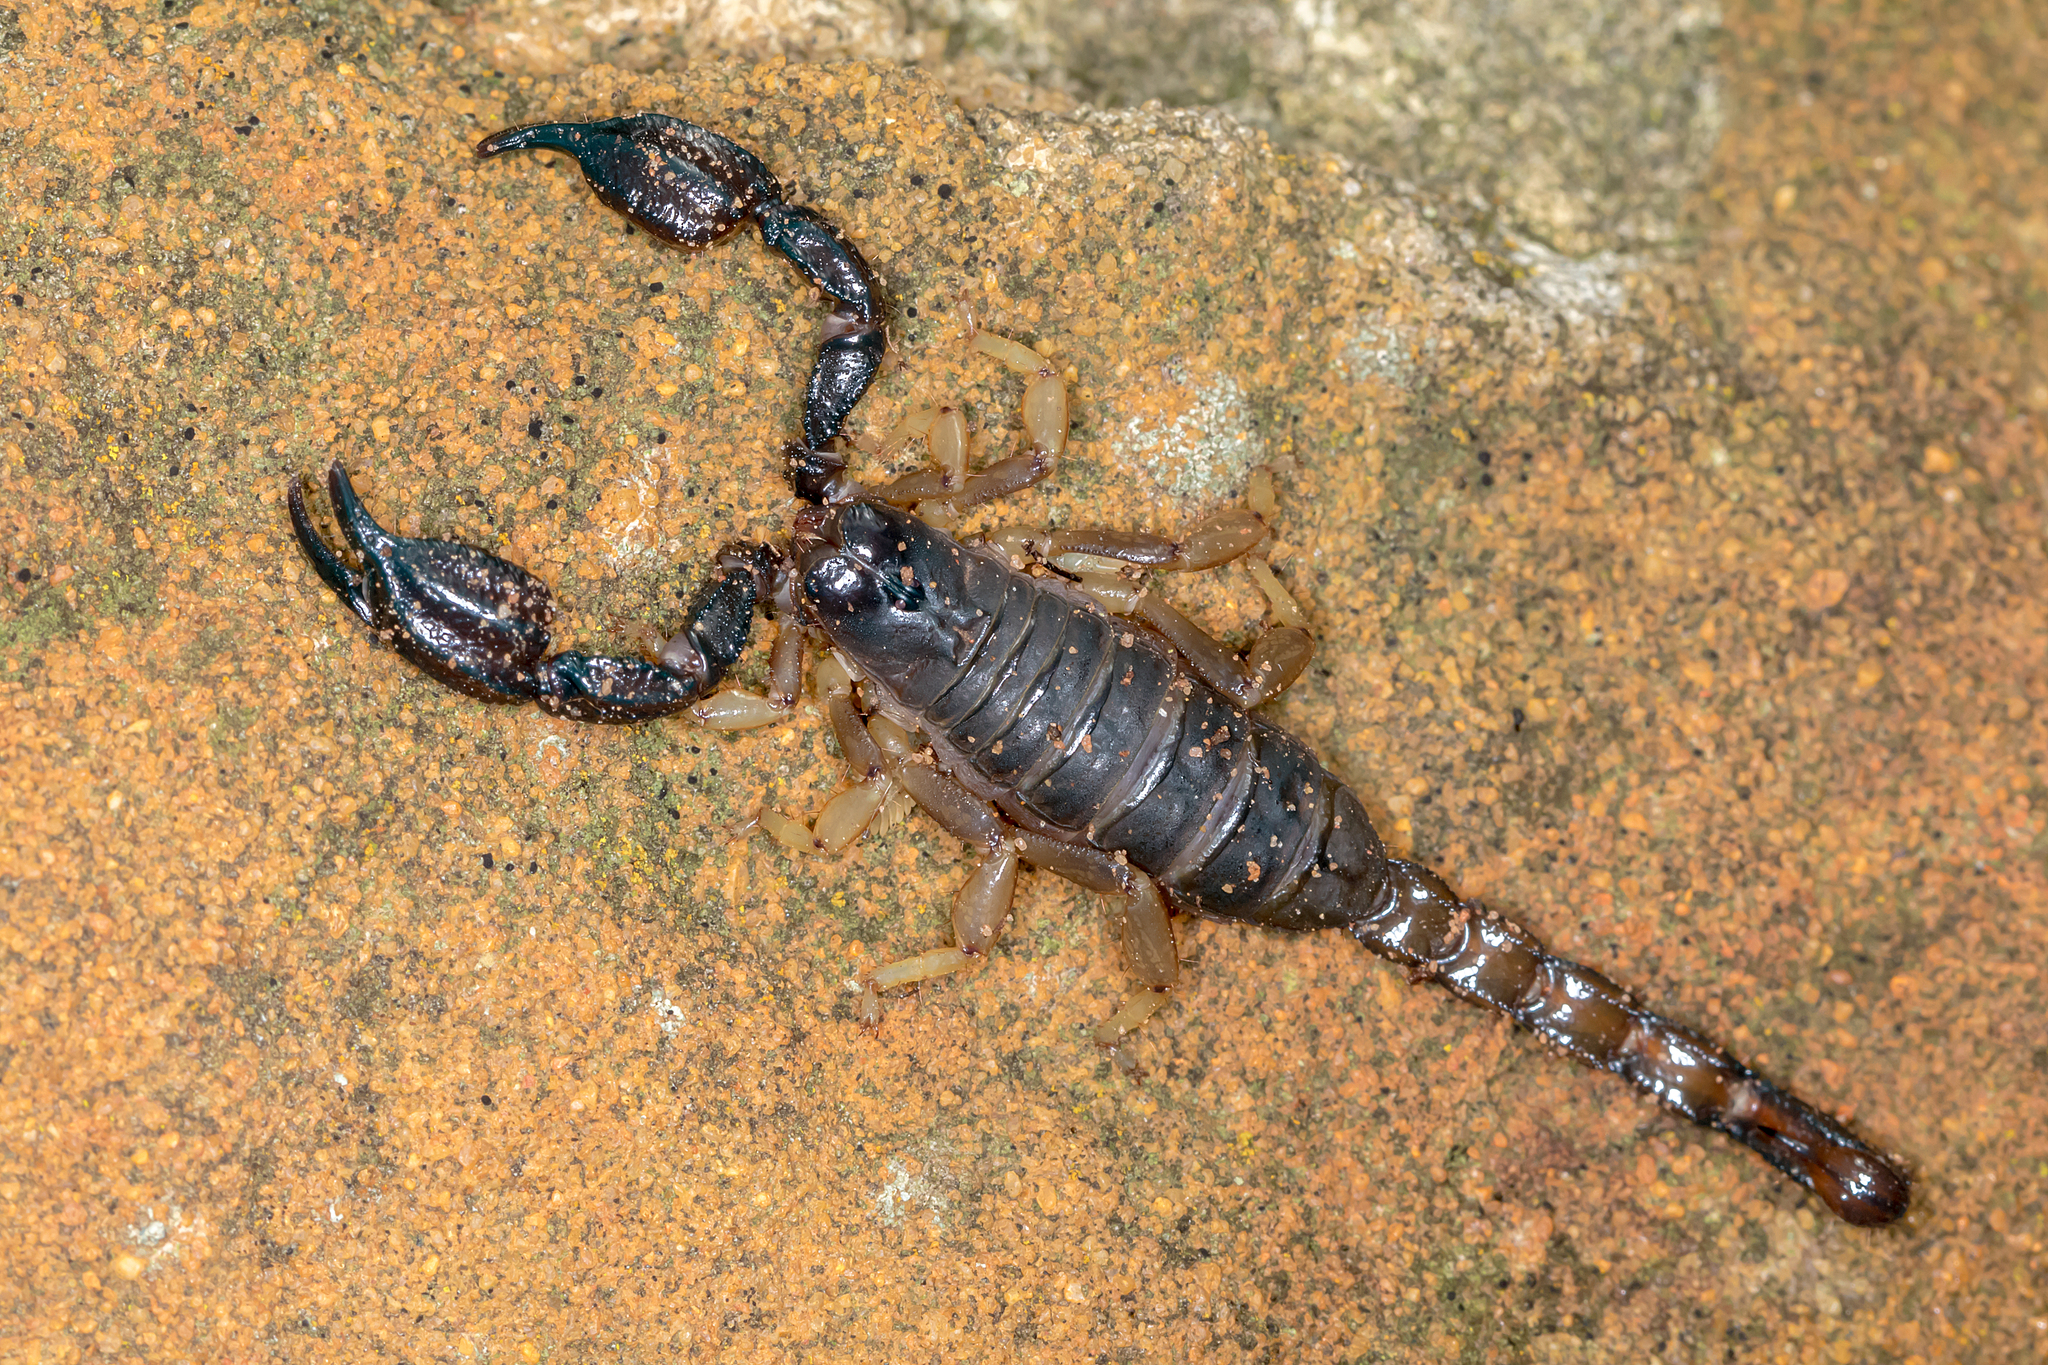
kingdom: Animalia
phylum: Arthropoda
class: Arachnida
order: Scorpiones
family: Scorpionidae
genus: Urodacus
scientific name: Urodacus manicatus
